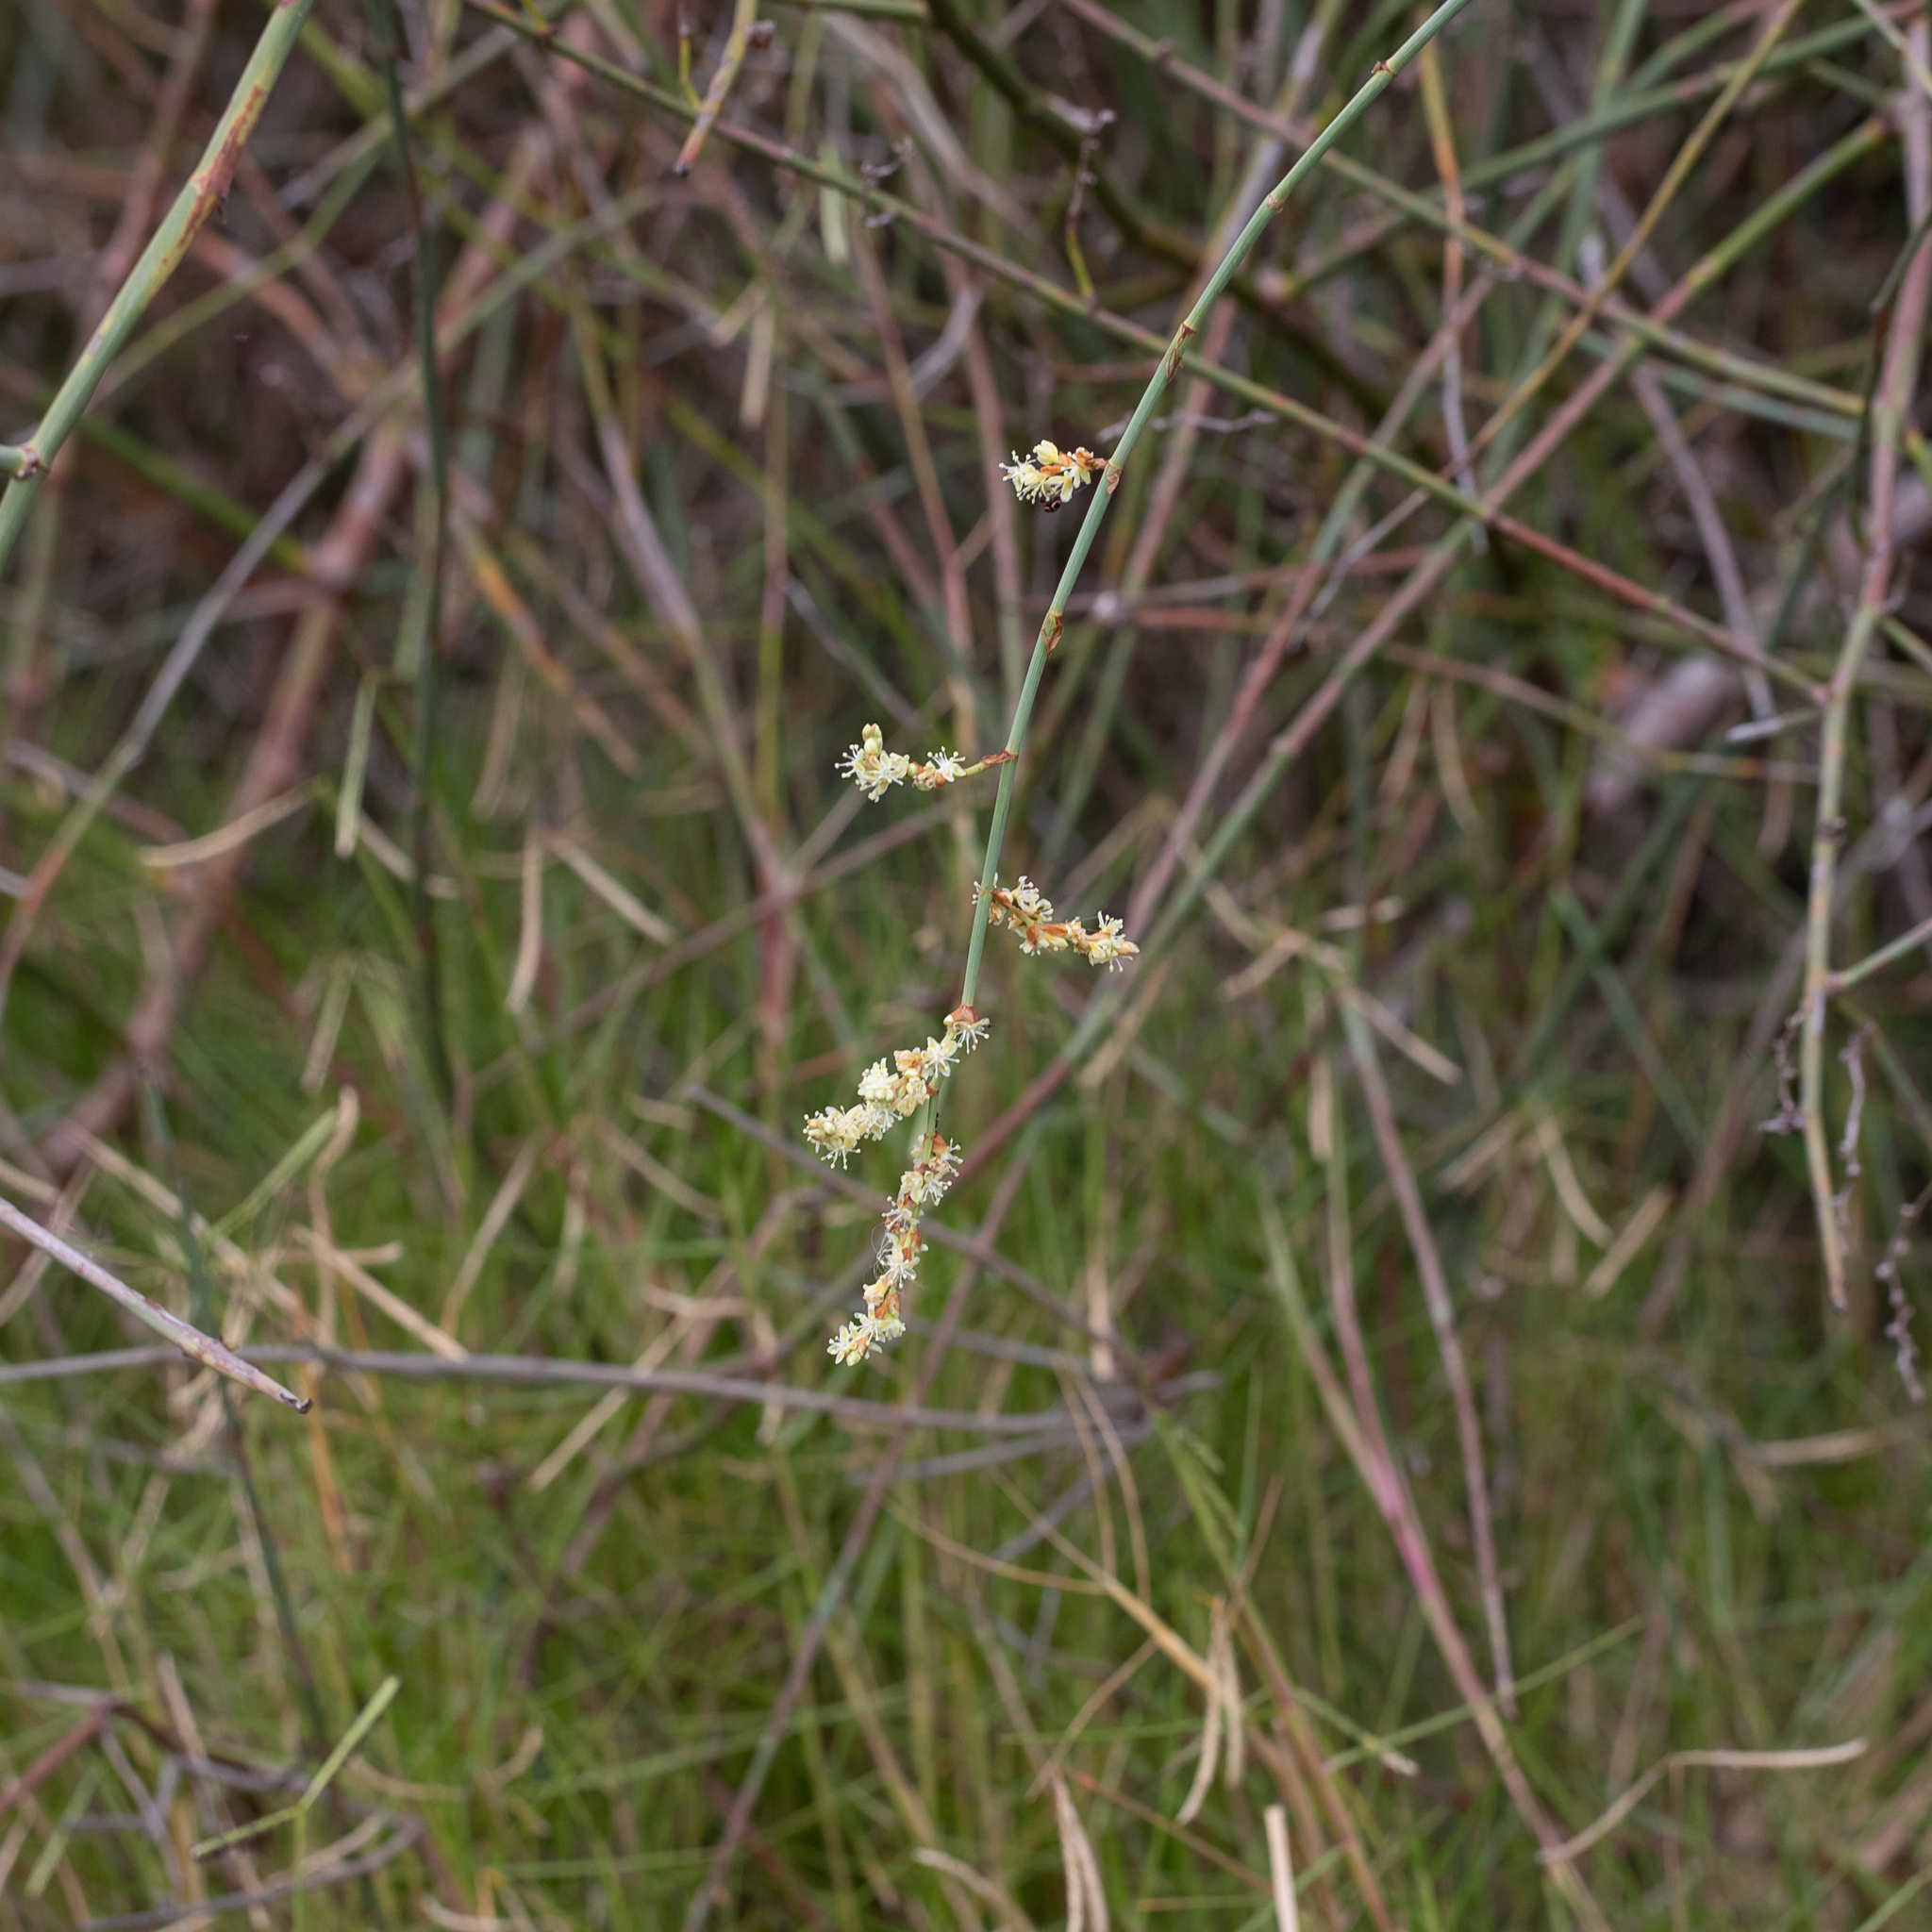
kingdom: Plantae
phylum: Tracheophyta
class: Magnoliopsida
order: Caryophyllales
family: Polygonaceae
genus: Duma
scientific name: Duma florulenta
